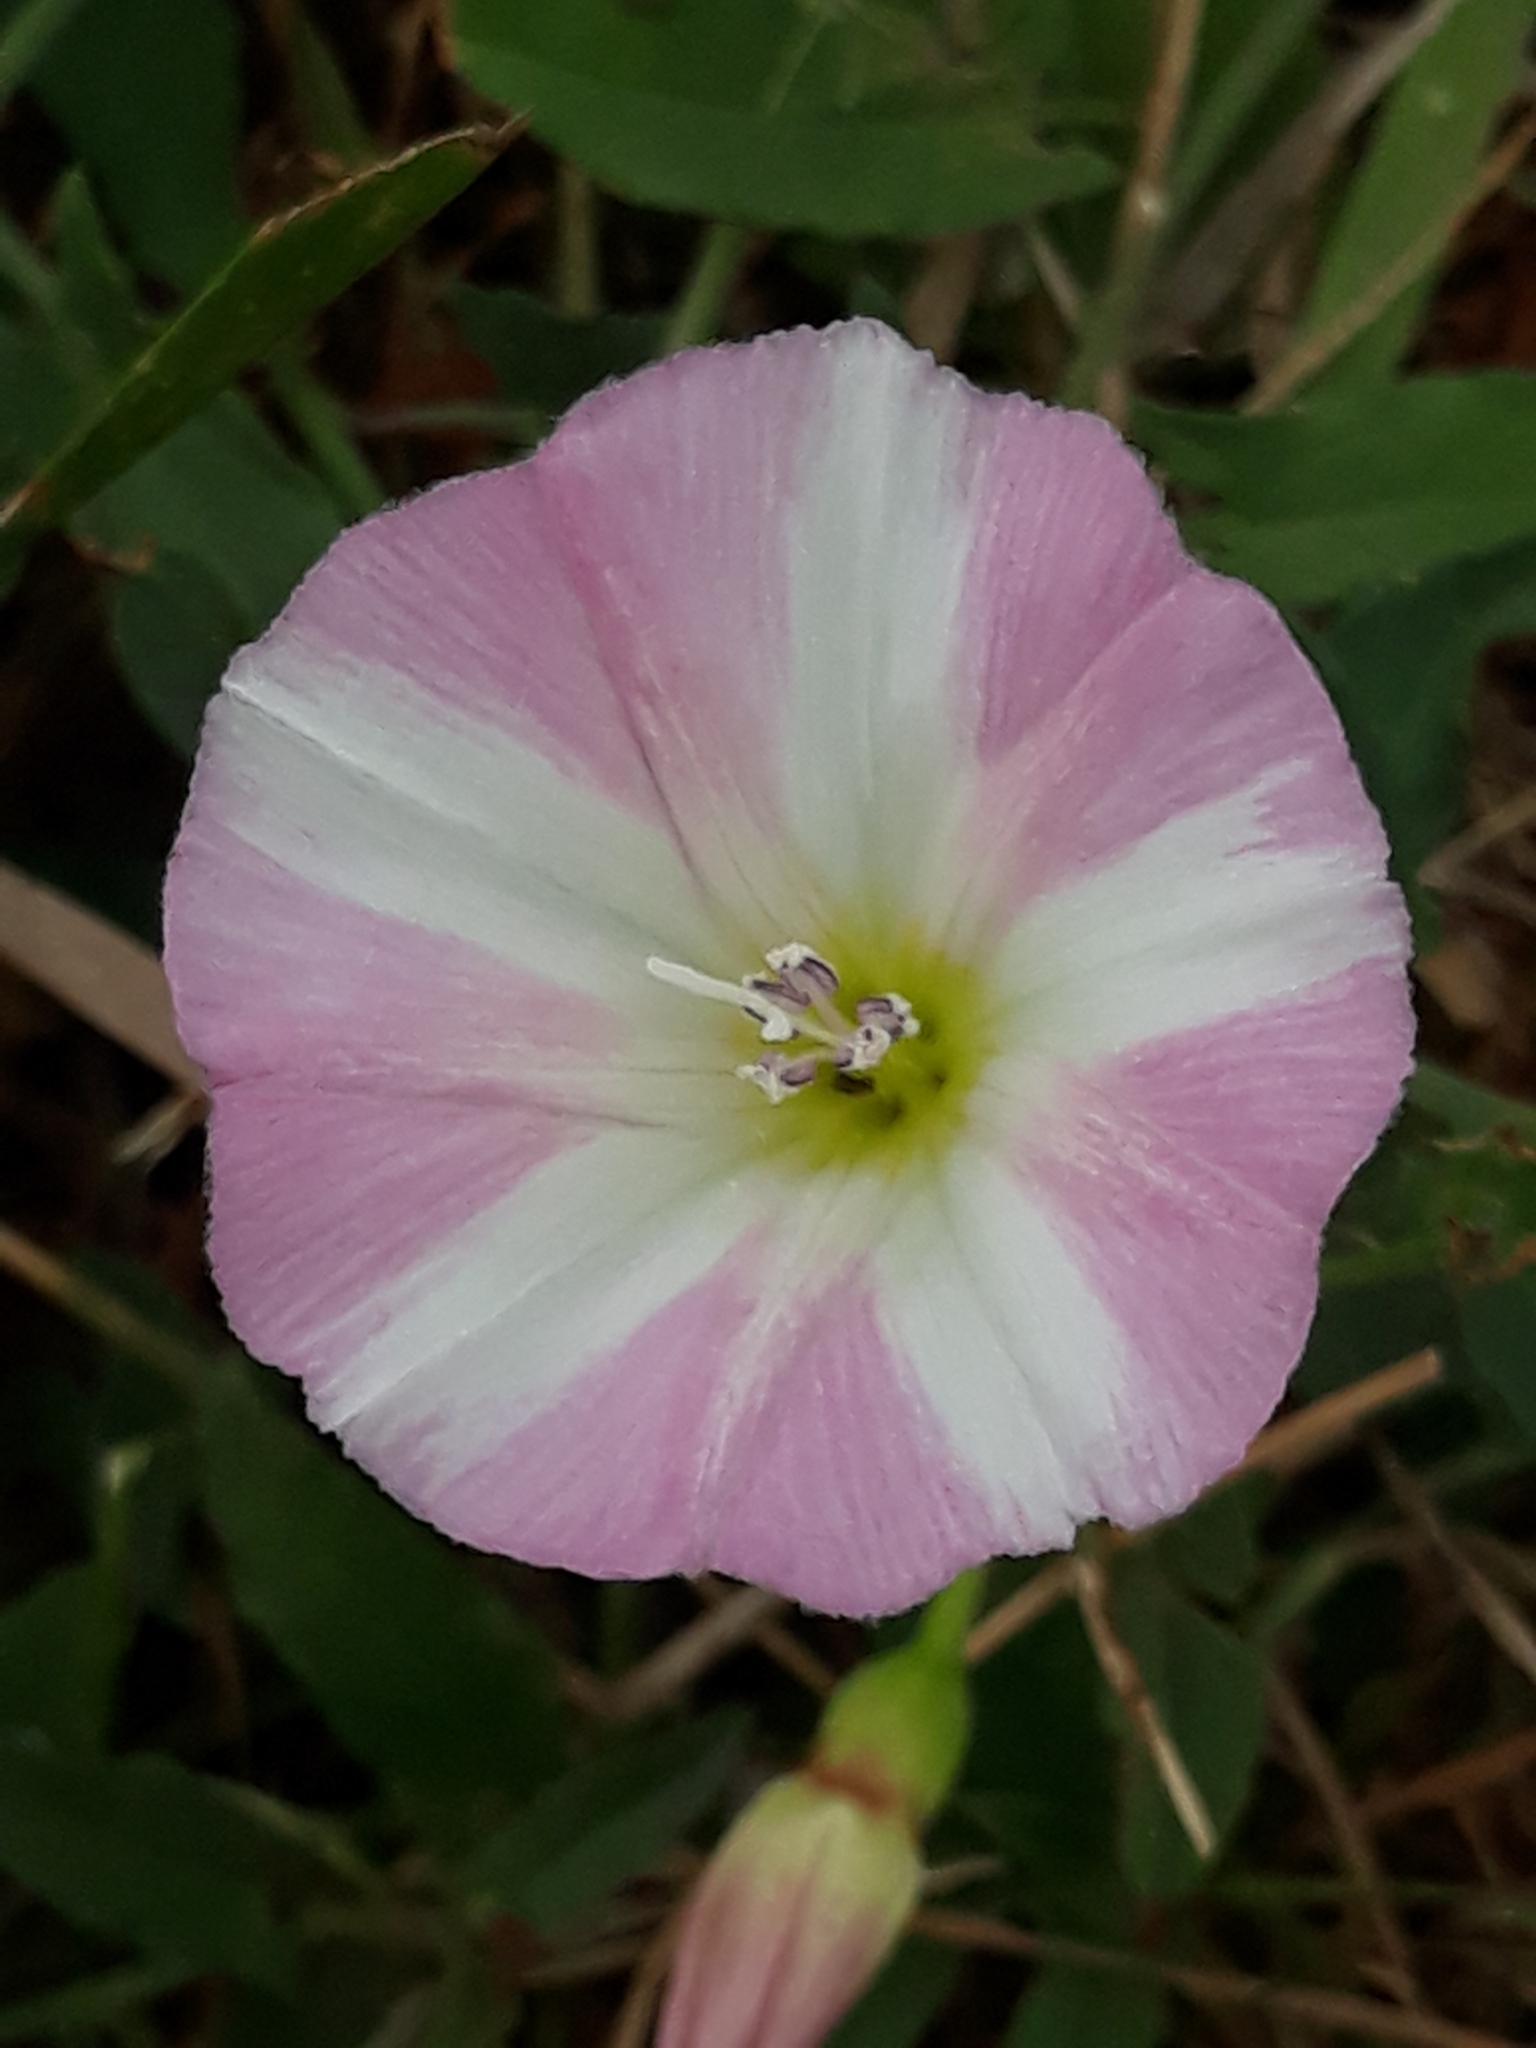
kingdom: Plantae
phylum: Tracheophyta
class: Magnoliopsida
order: Solanales
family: Convolvulaceae
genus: Convolvulus
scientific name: Convolvulus arvensis
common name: Field bindweed
